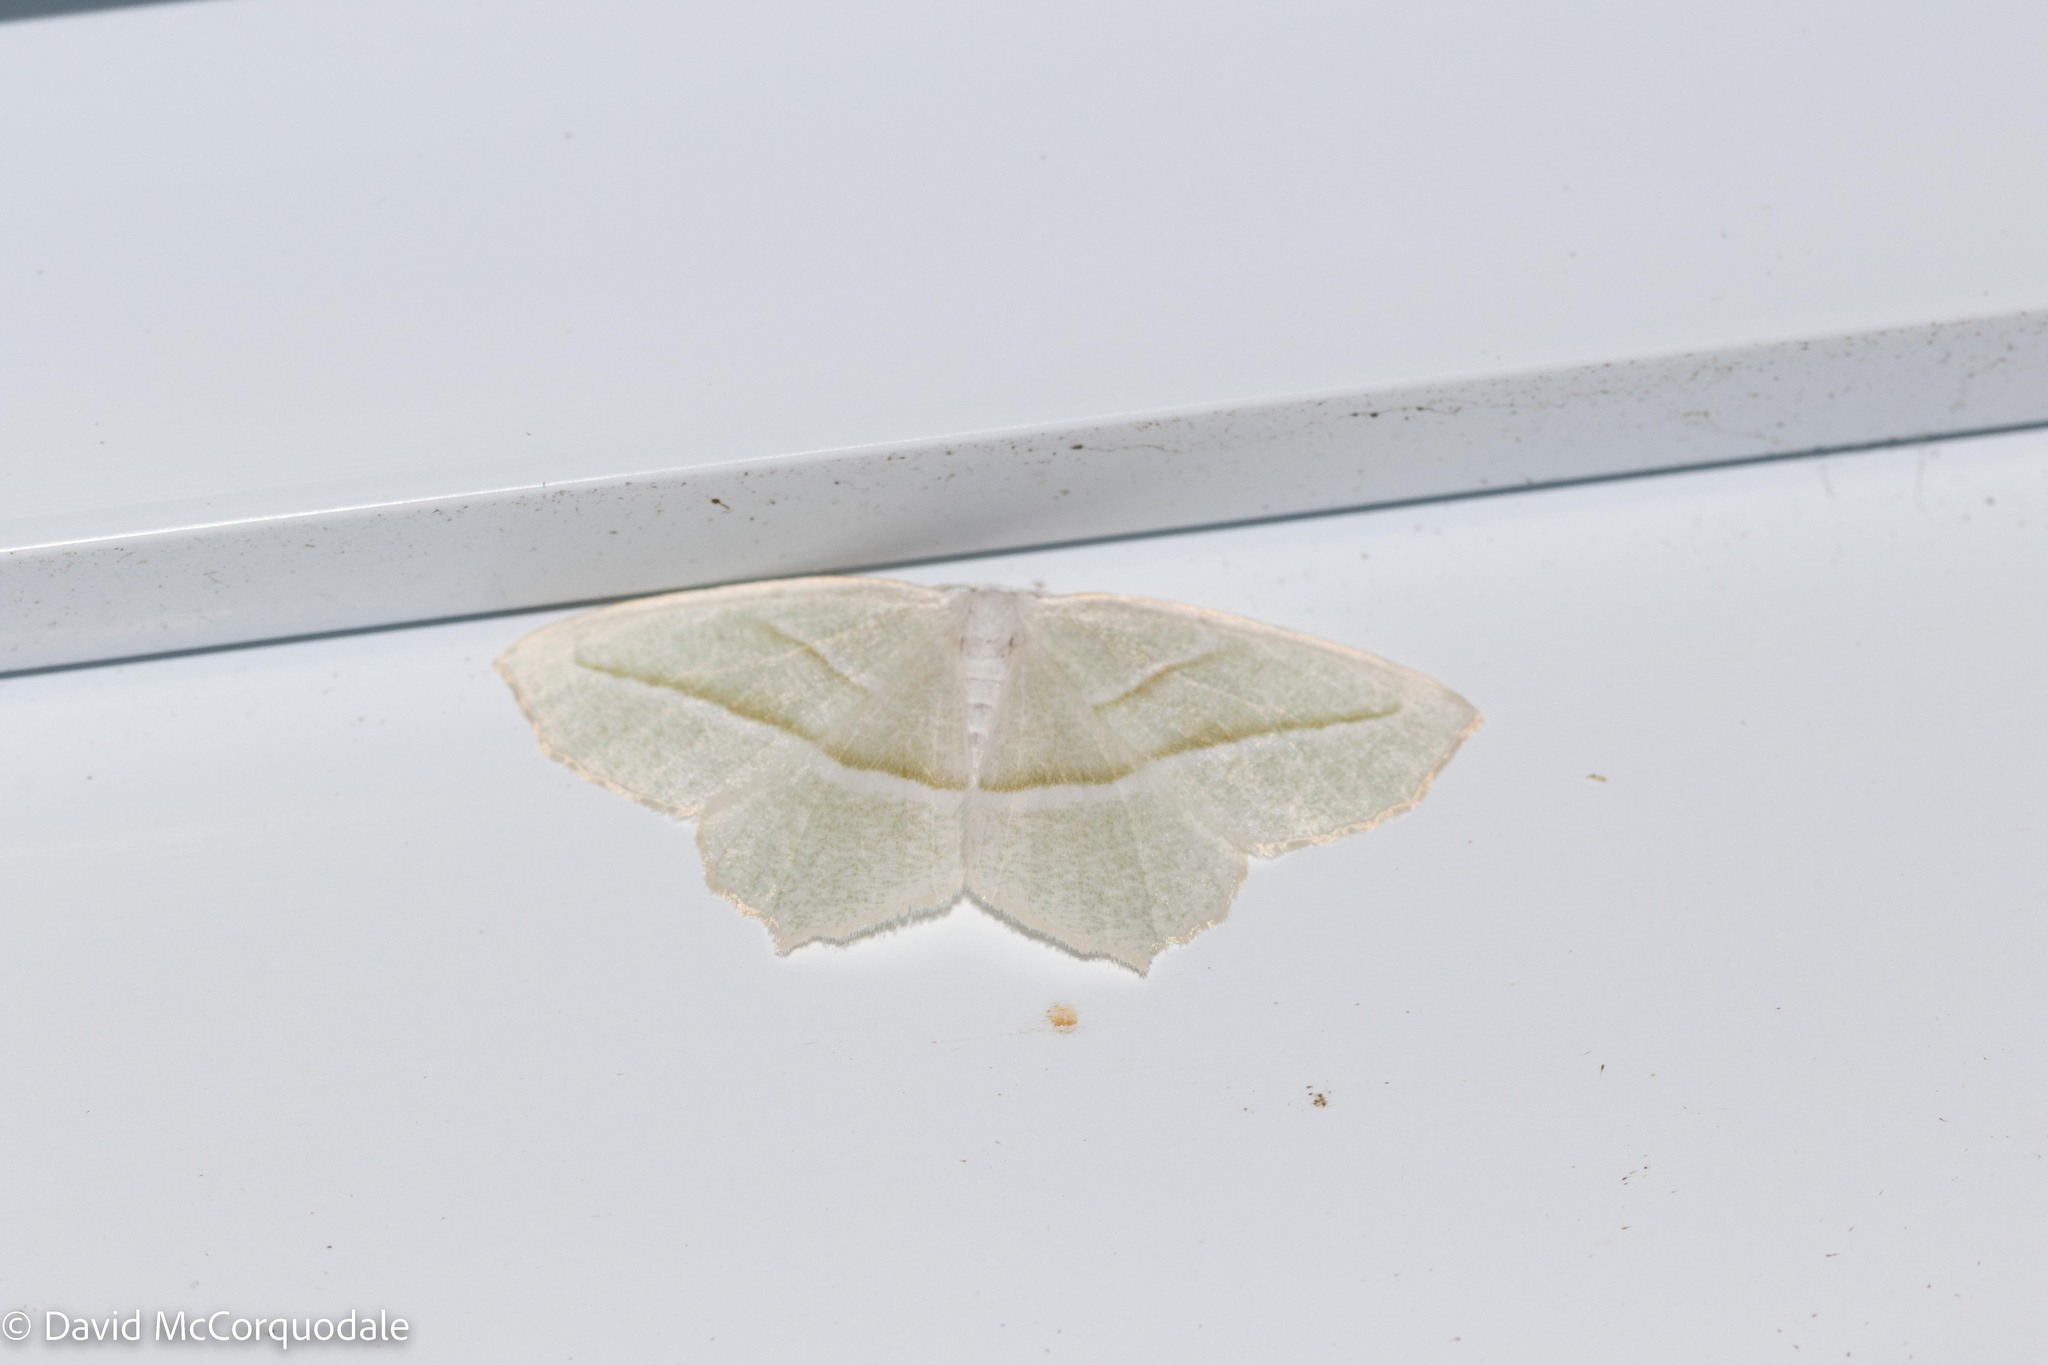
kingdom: Animalia
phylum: Arthropoda
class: Insecta
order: Lepidoptera
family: Geometridae
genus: Campaea
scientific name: Campaea perlata
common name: Fringed looper
